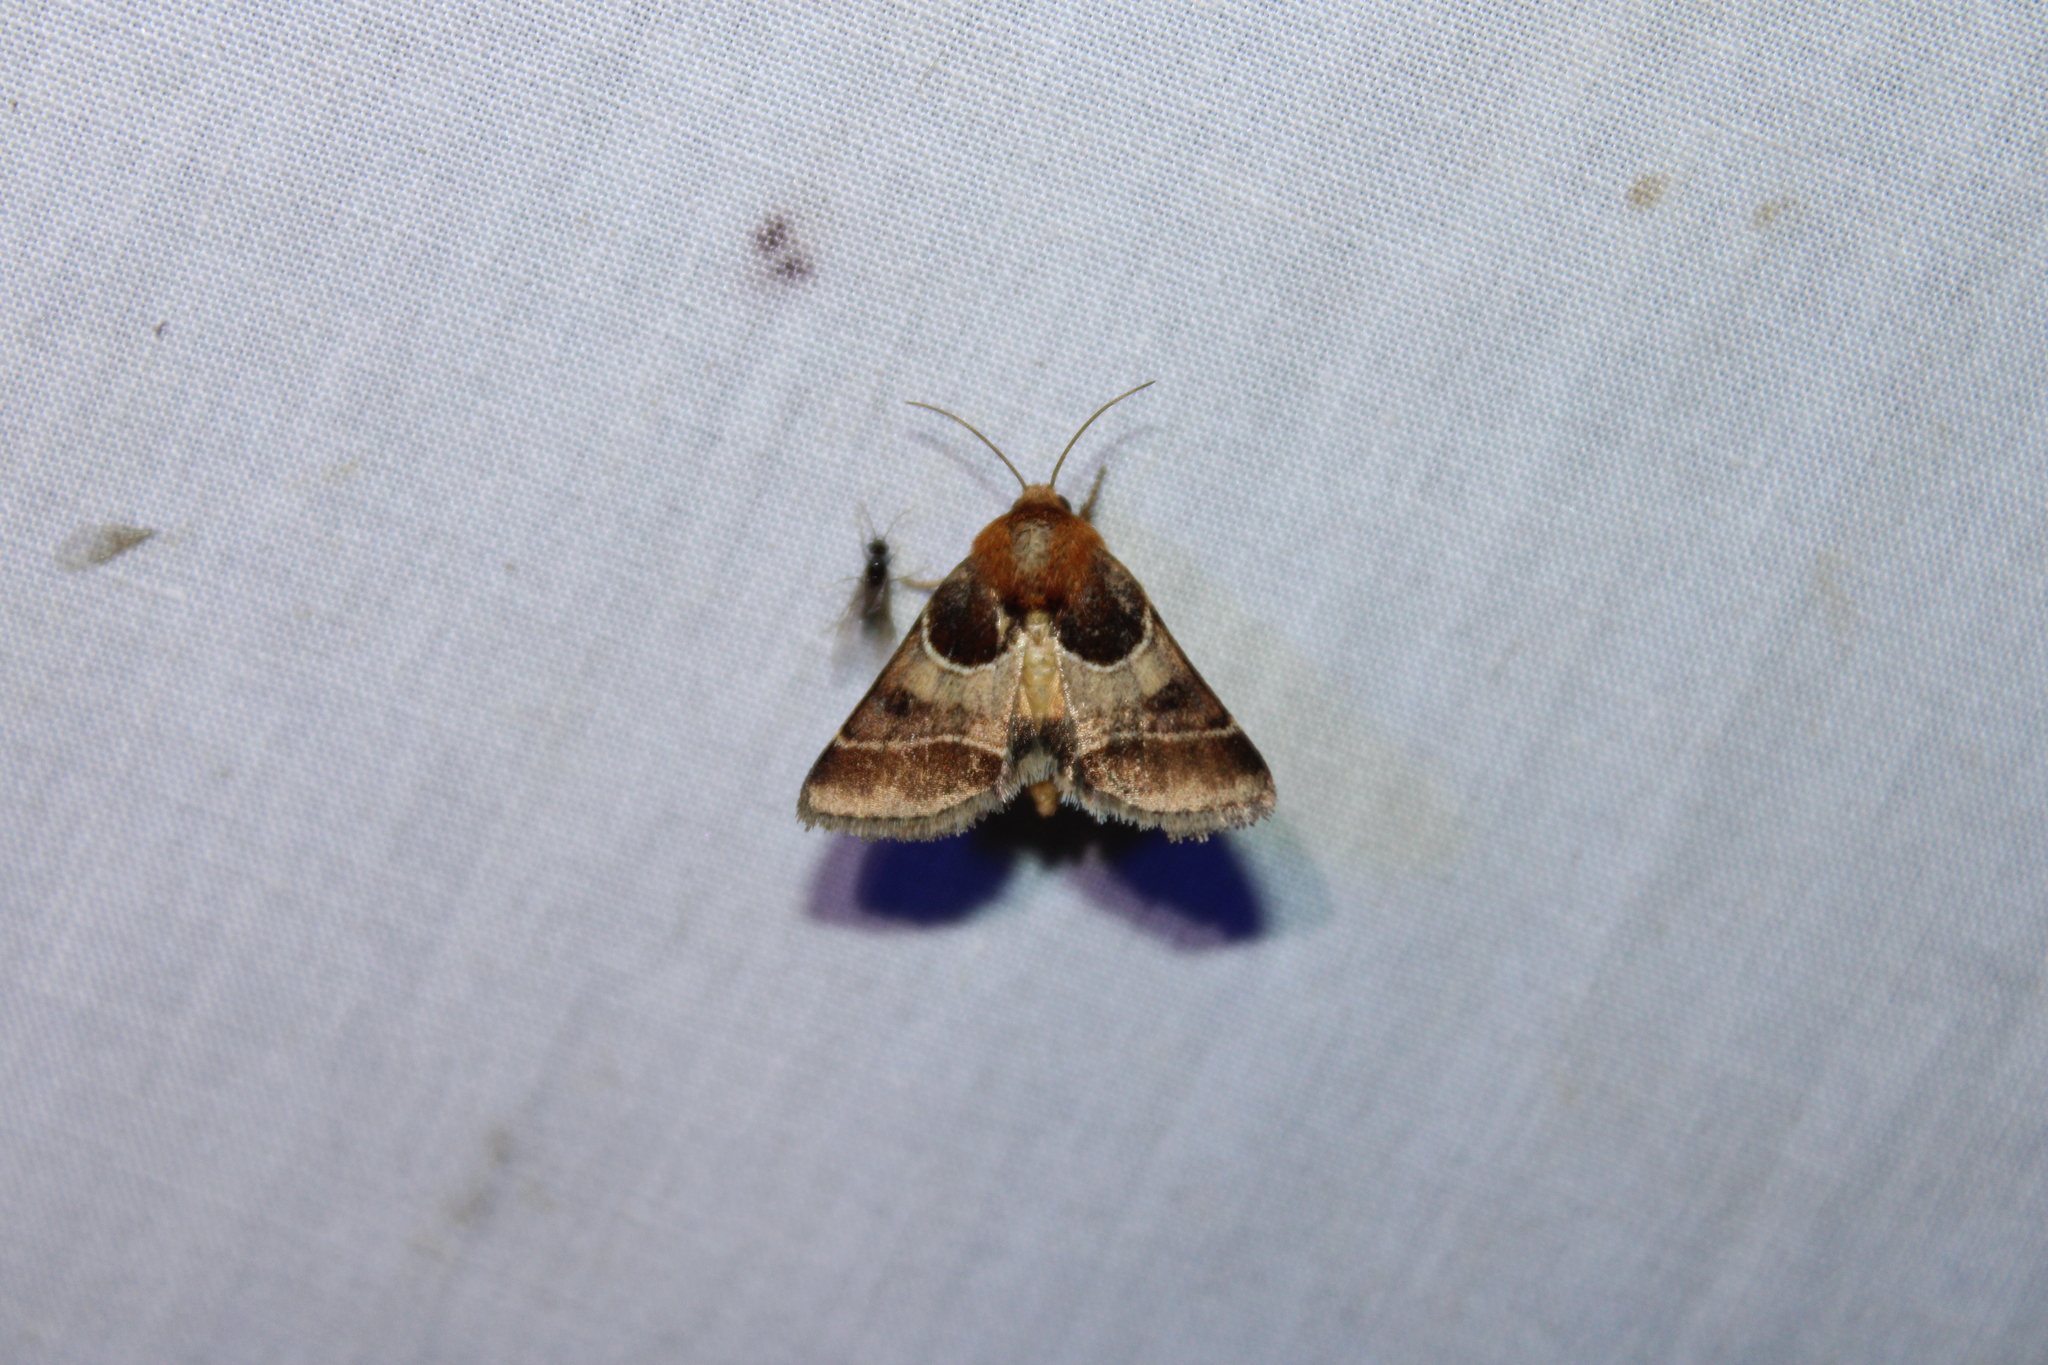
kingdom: Animalia
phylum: Arthropoda
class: Insecta
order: Lepidoptera
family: Noctuidae
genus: Schinia
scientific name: Schinia arcigera
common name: Arcigera flower moth
